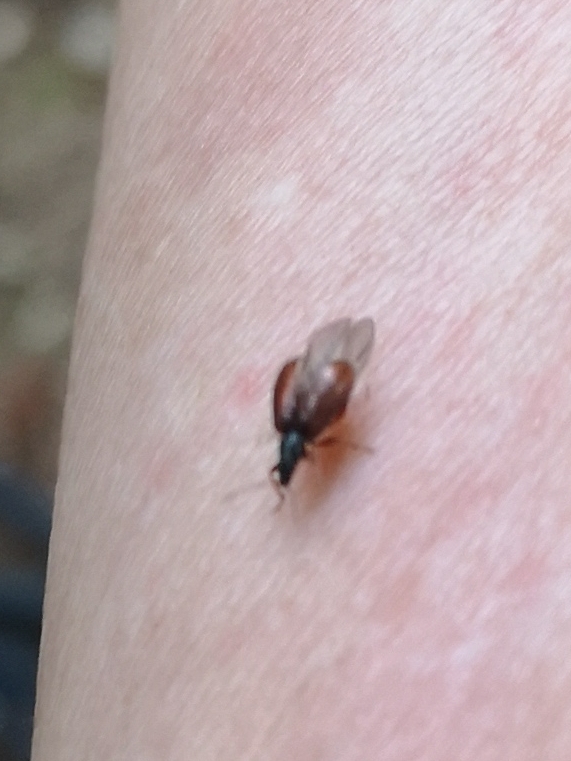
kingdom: Animalia
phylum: Arthropoda
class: Insecta
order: Coleoptera
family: Curculionidae
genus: Phyllobius
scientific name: Phyllobius oblongus
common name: Brown leaf weevil
